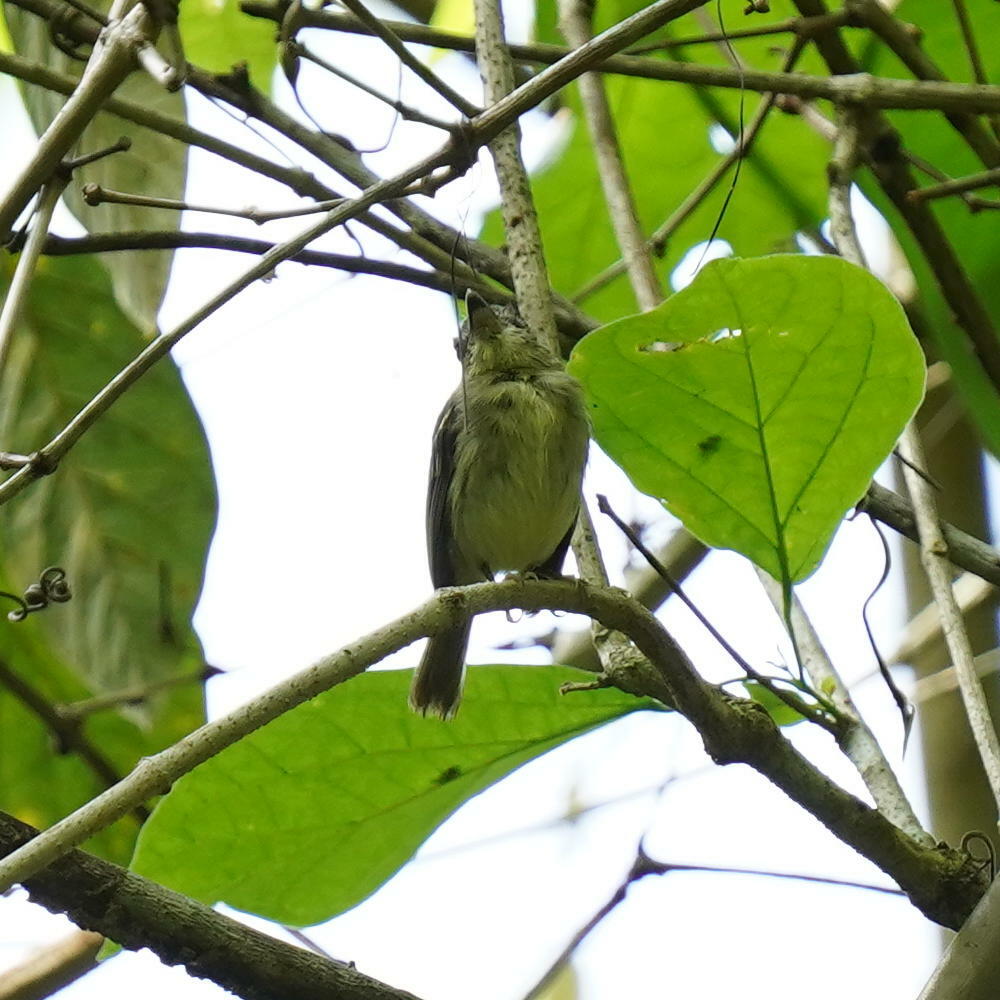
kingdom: Animalia
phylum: Chordata
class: Aves
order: Passeriformes
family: Tyrannidae
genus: Oncostoma
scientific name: Oncostoma olivaceum
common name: Southern bentbill
